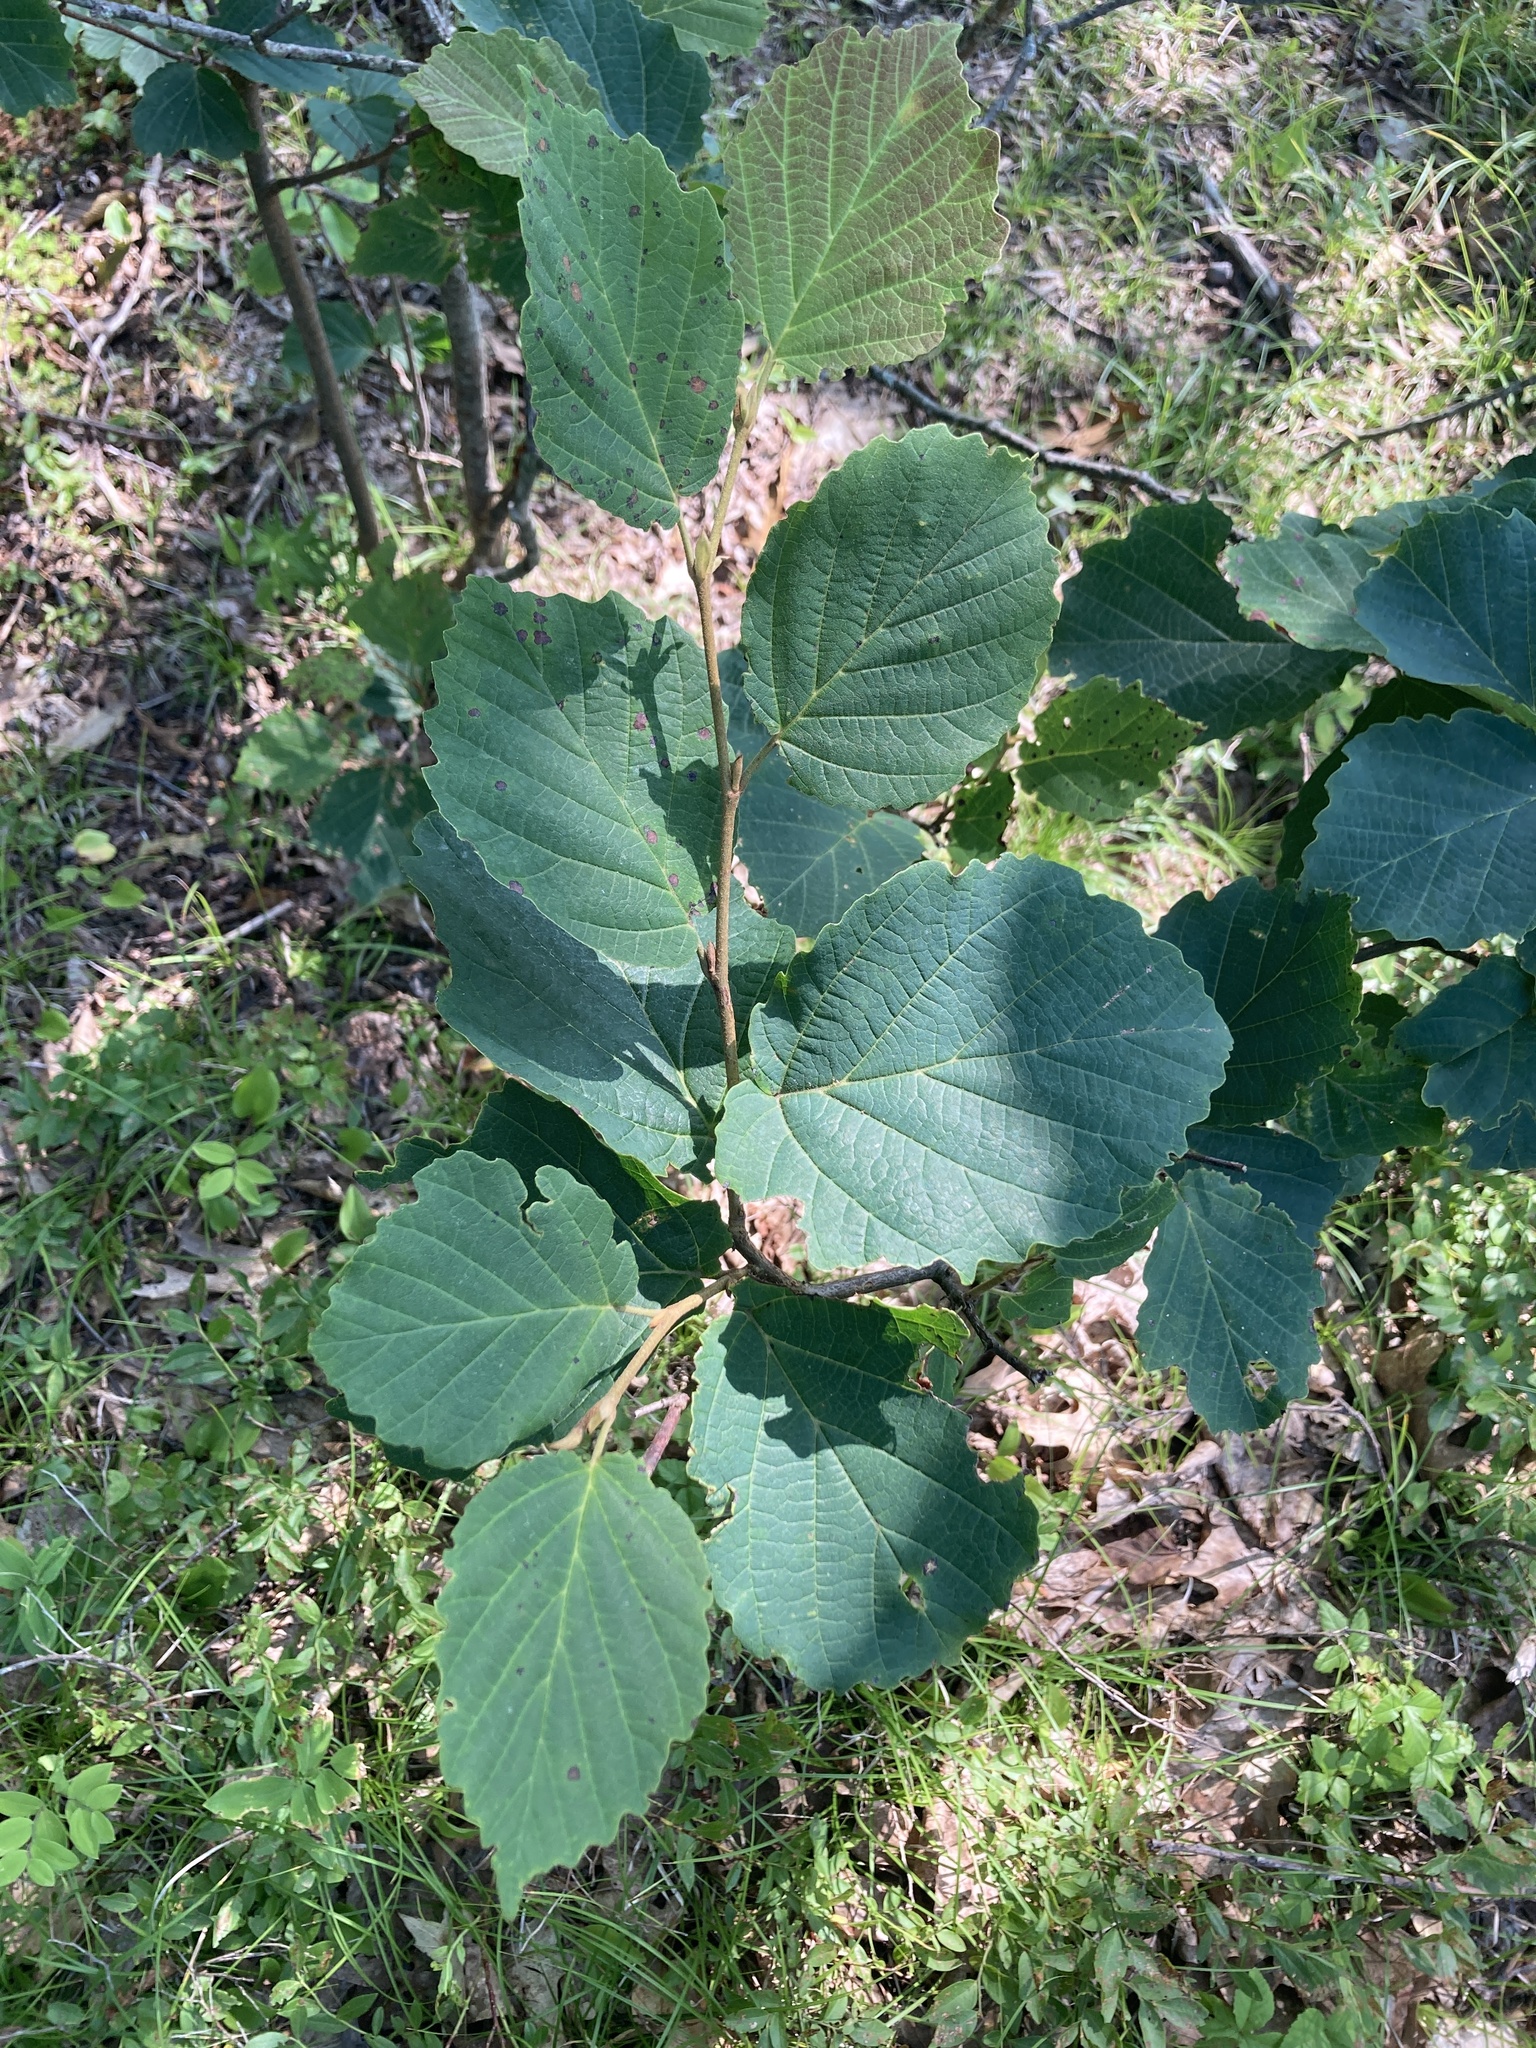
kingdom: Plantae
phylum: Tracheophyta
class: Magnoliopsida
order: Saxifragales
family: Hamamelidaceae
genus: Hamamelis
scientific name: Hamamelis virginiana
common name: Witch-hazel
